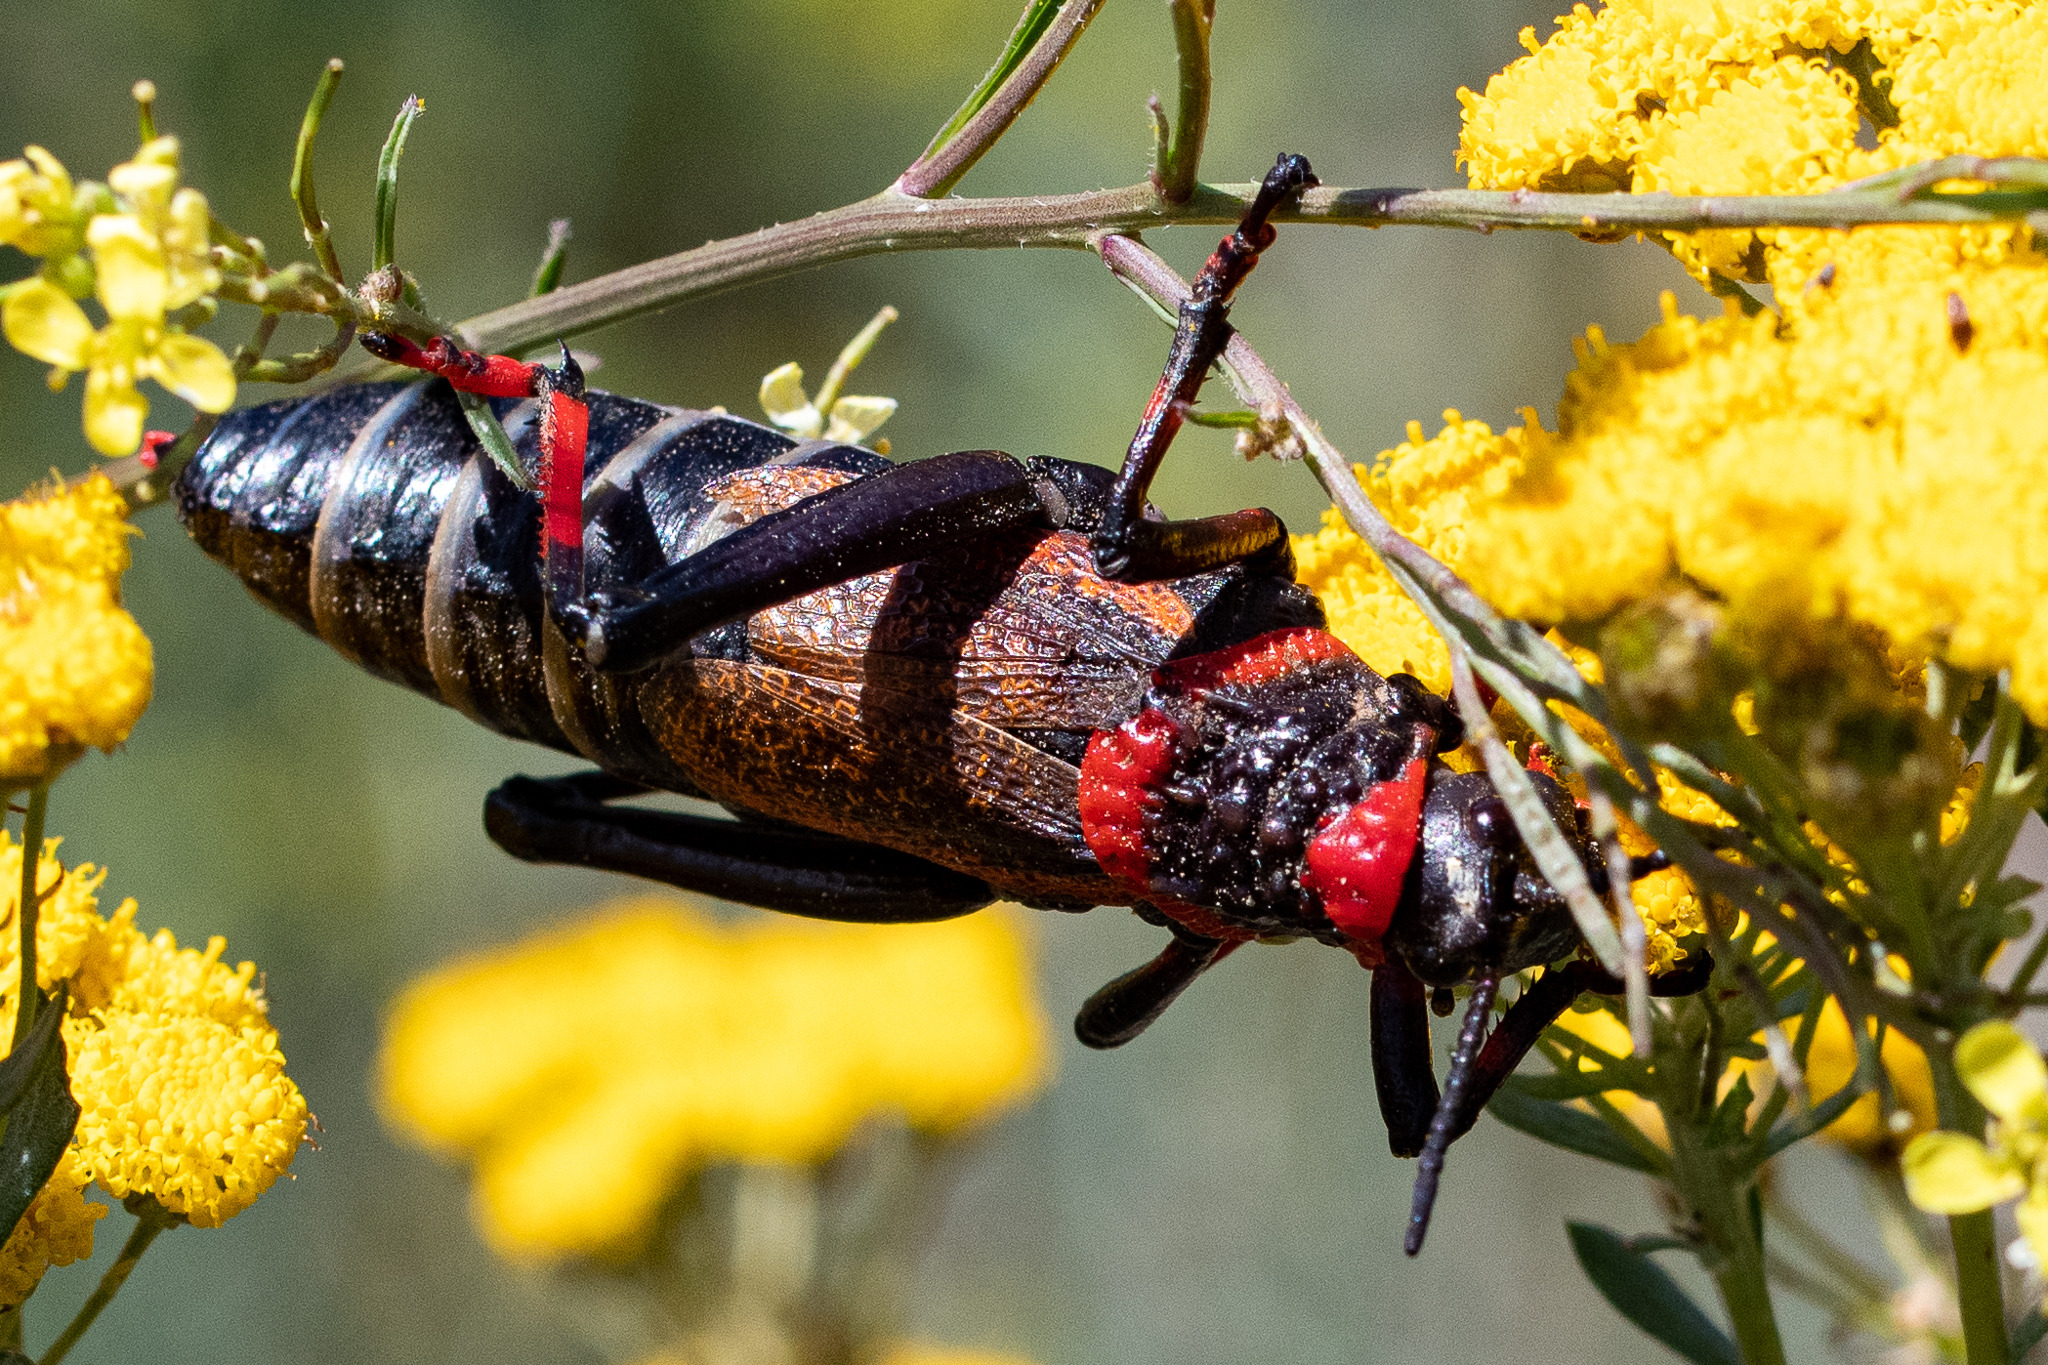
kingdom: Animalia
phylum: Arthropoda
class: Insecta
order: Orthoptera
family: Pyrgomorphidae
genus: Dictyophorus
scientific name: Dictyophorus spumans
